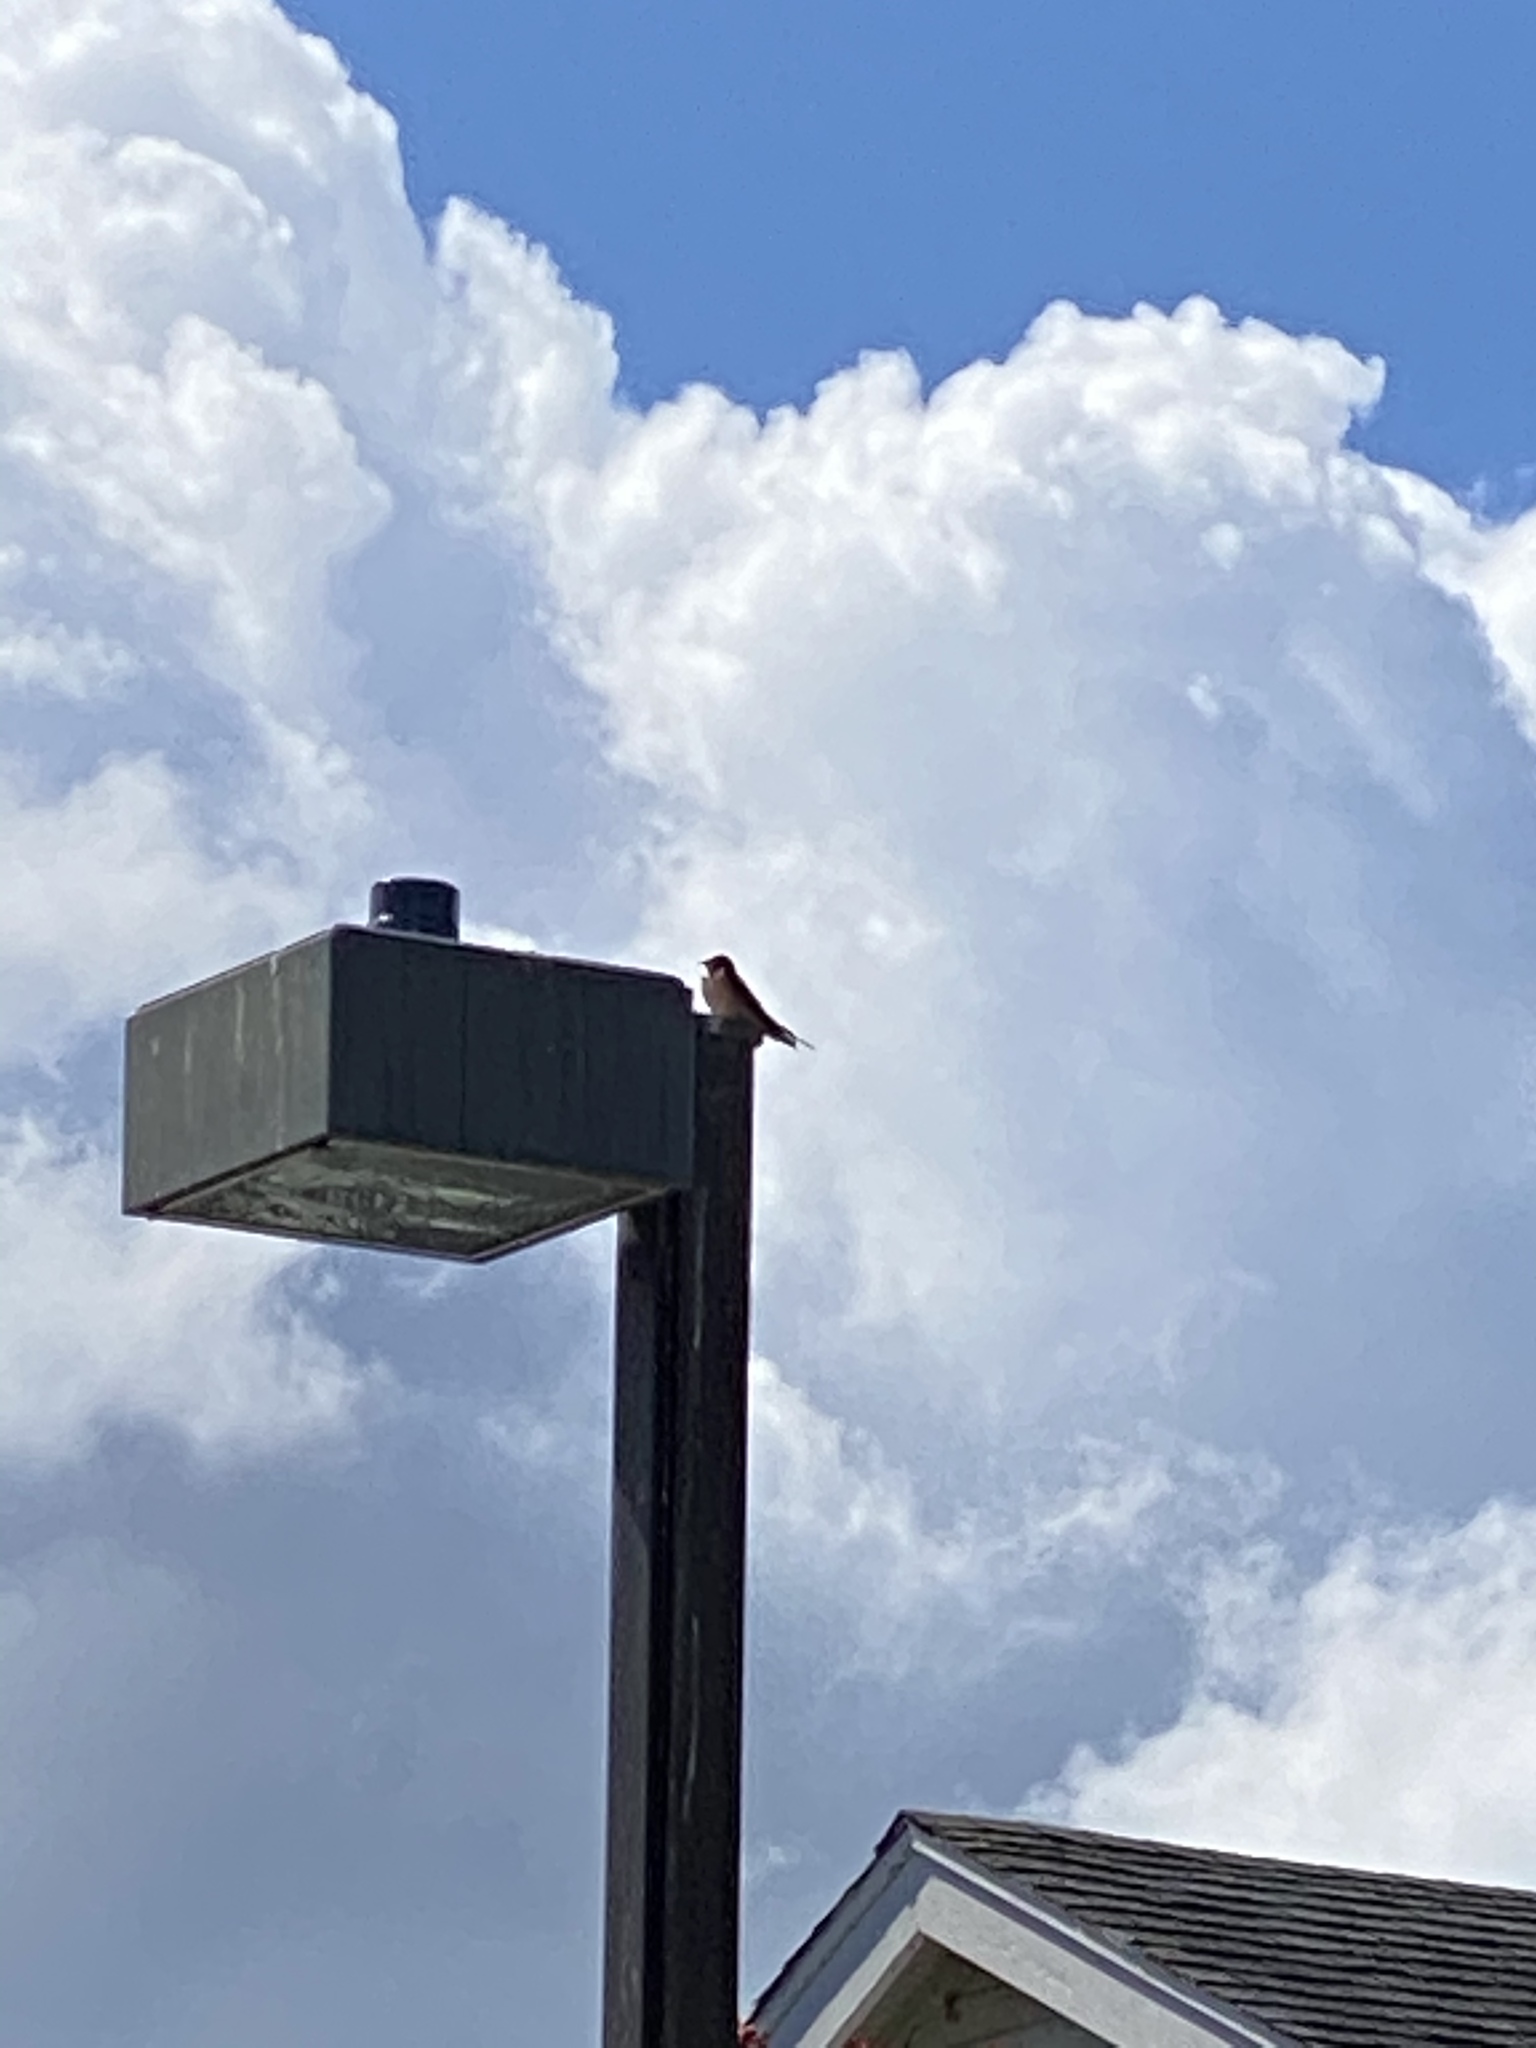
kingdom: Animalia
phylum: Chordata
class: Aves
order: Passeriformes
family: Hirundinidae
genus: Hirundo
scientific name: Hirundo rustica
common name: Barn swallow
